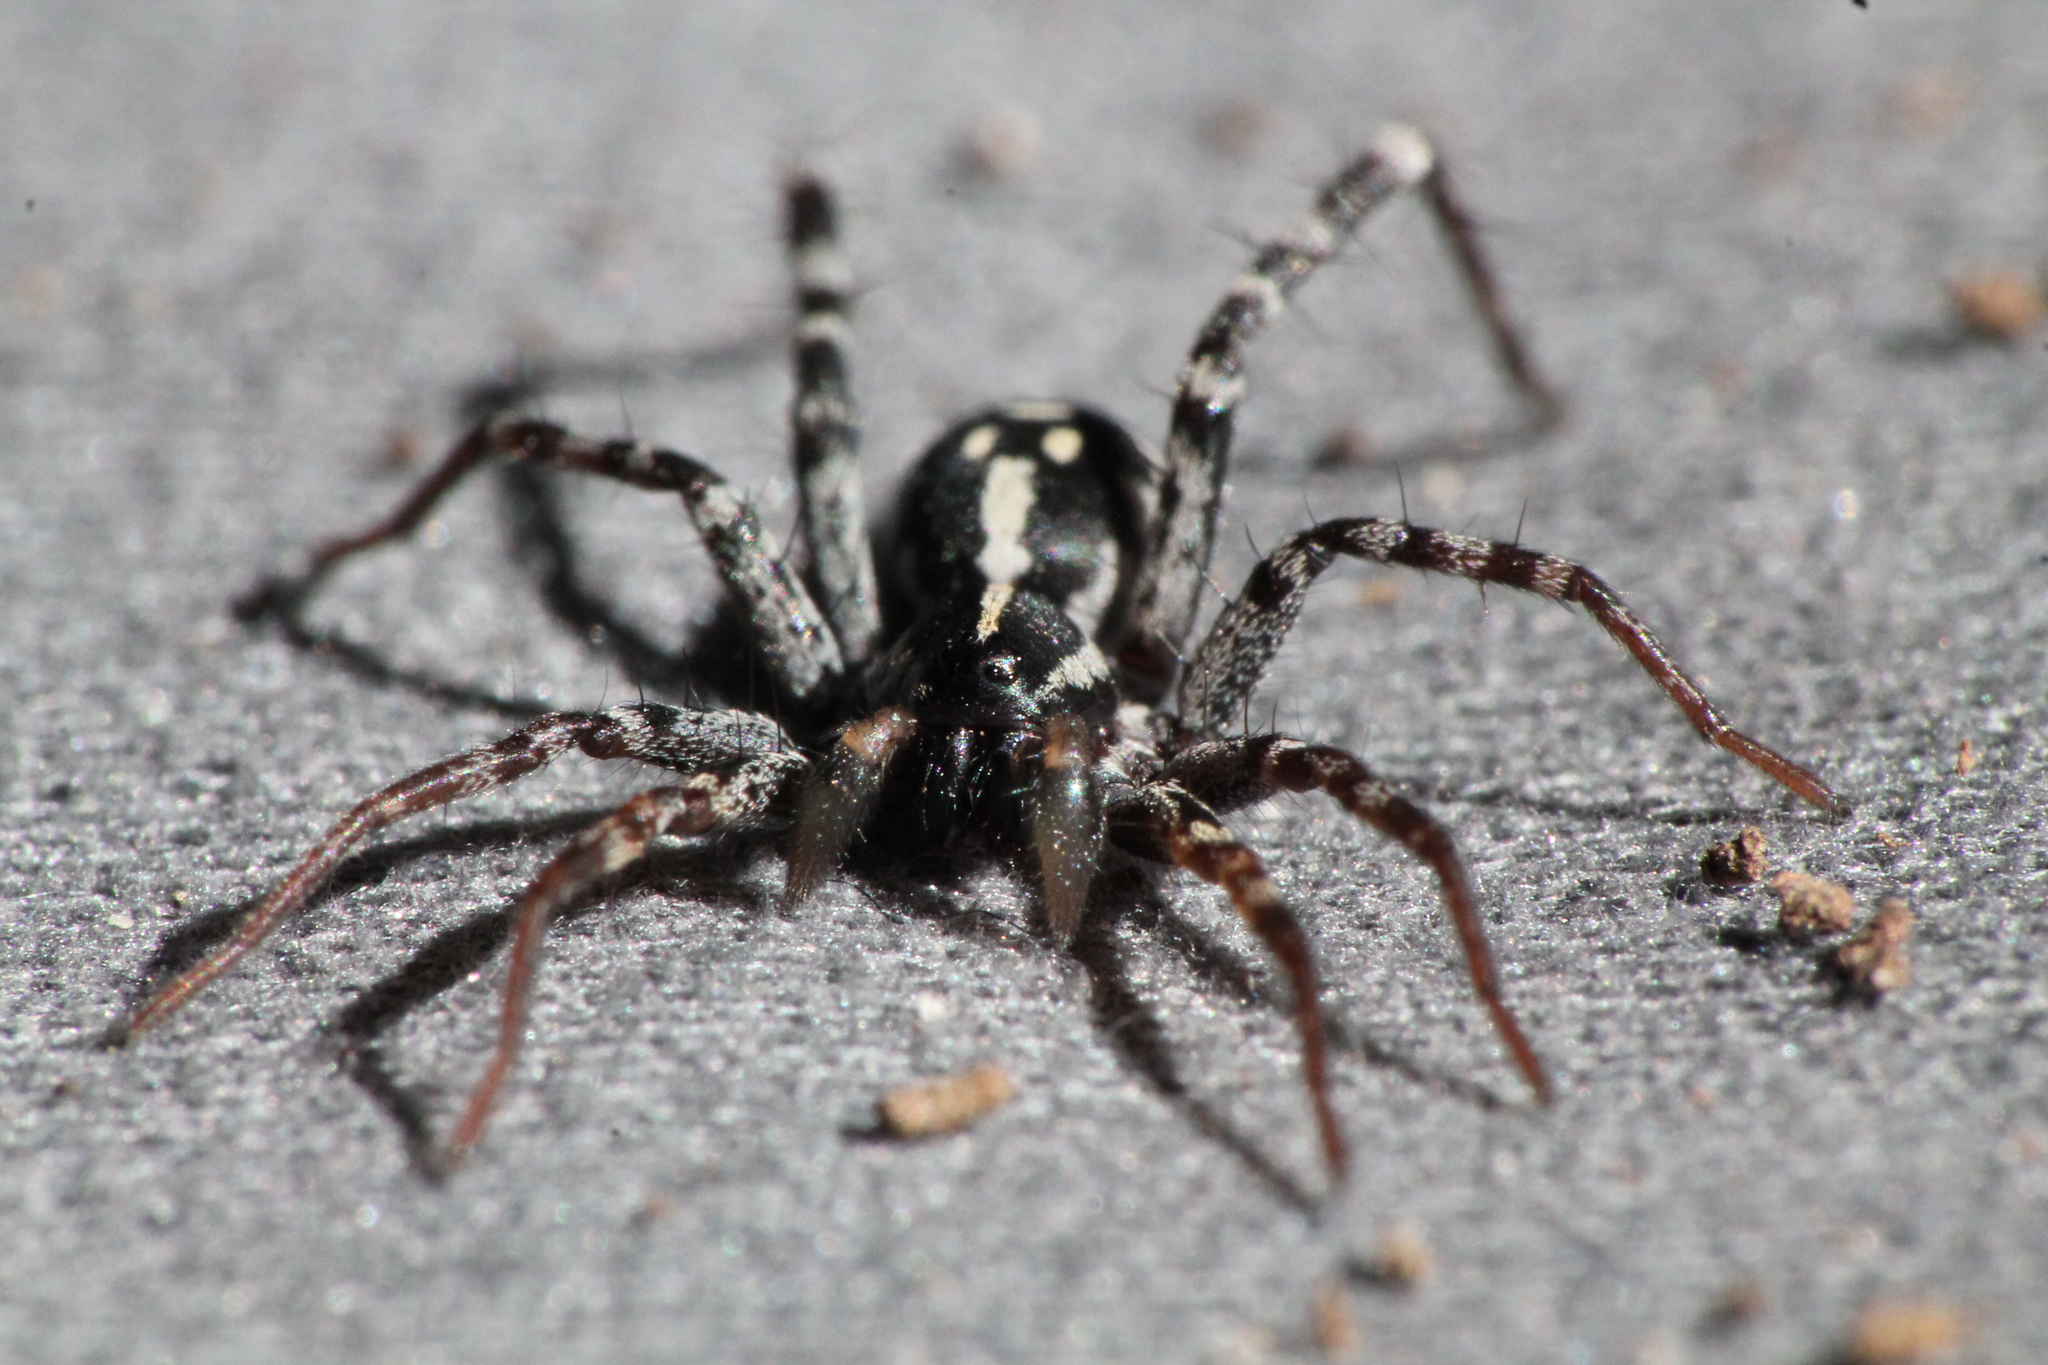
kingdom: Animalia
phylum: Arthropoda
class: Arachnida
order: Araneae
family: Corinnidae
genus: Nyssus
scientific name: Nyssus coloripes
